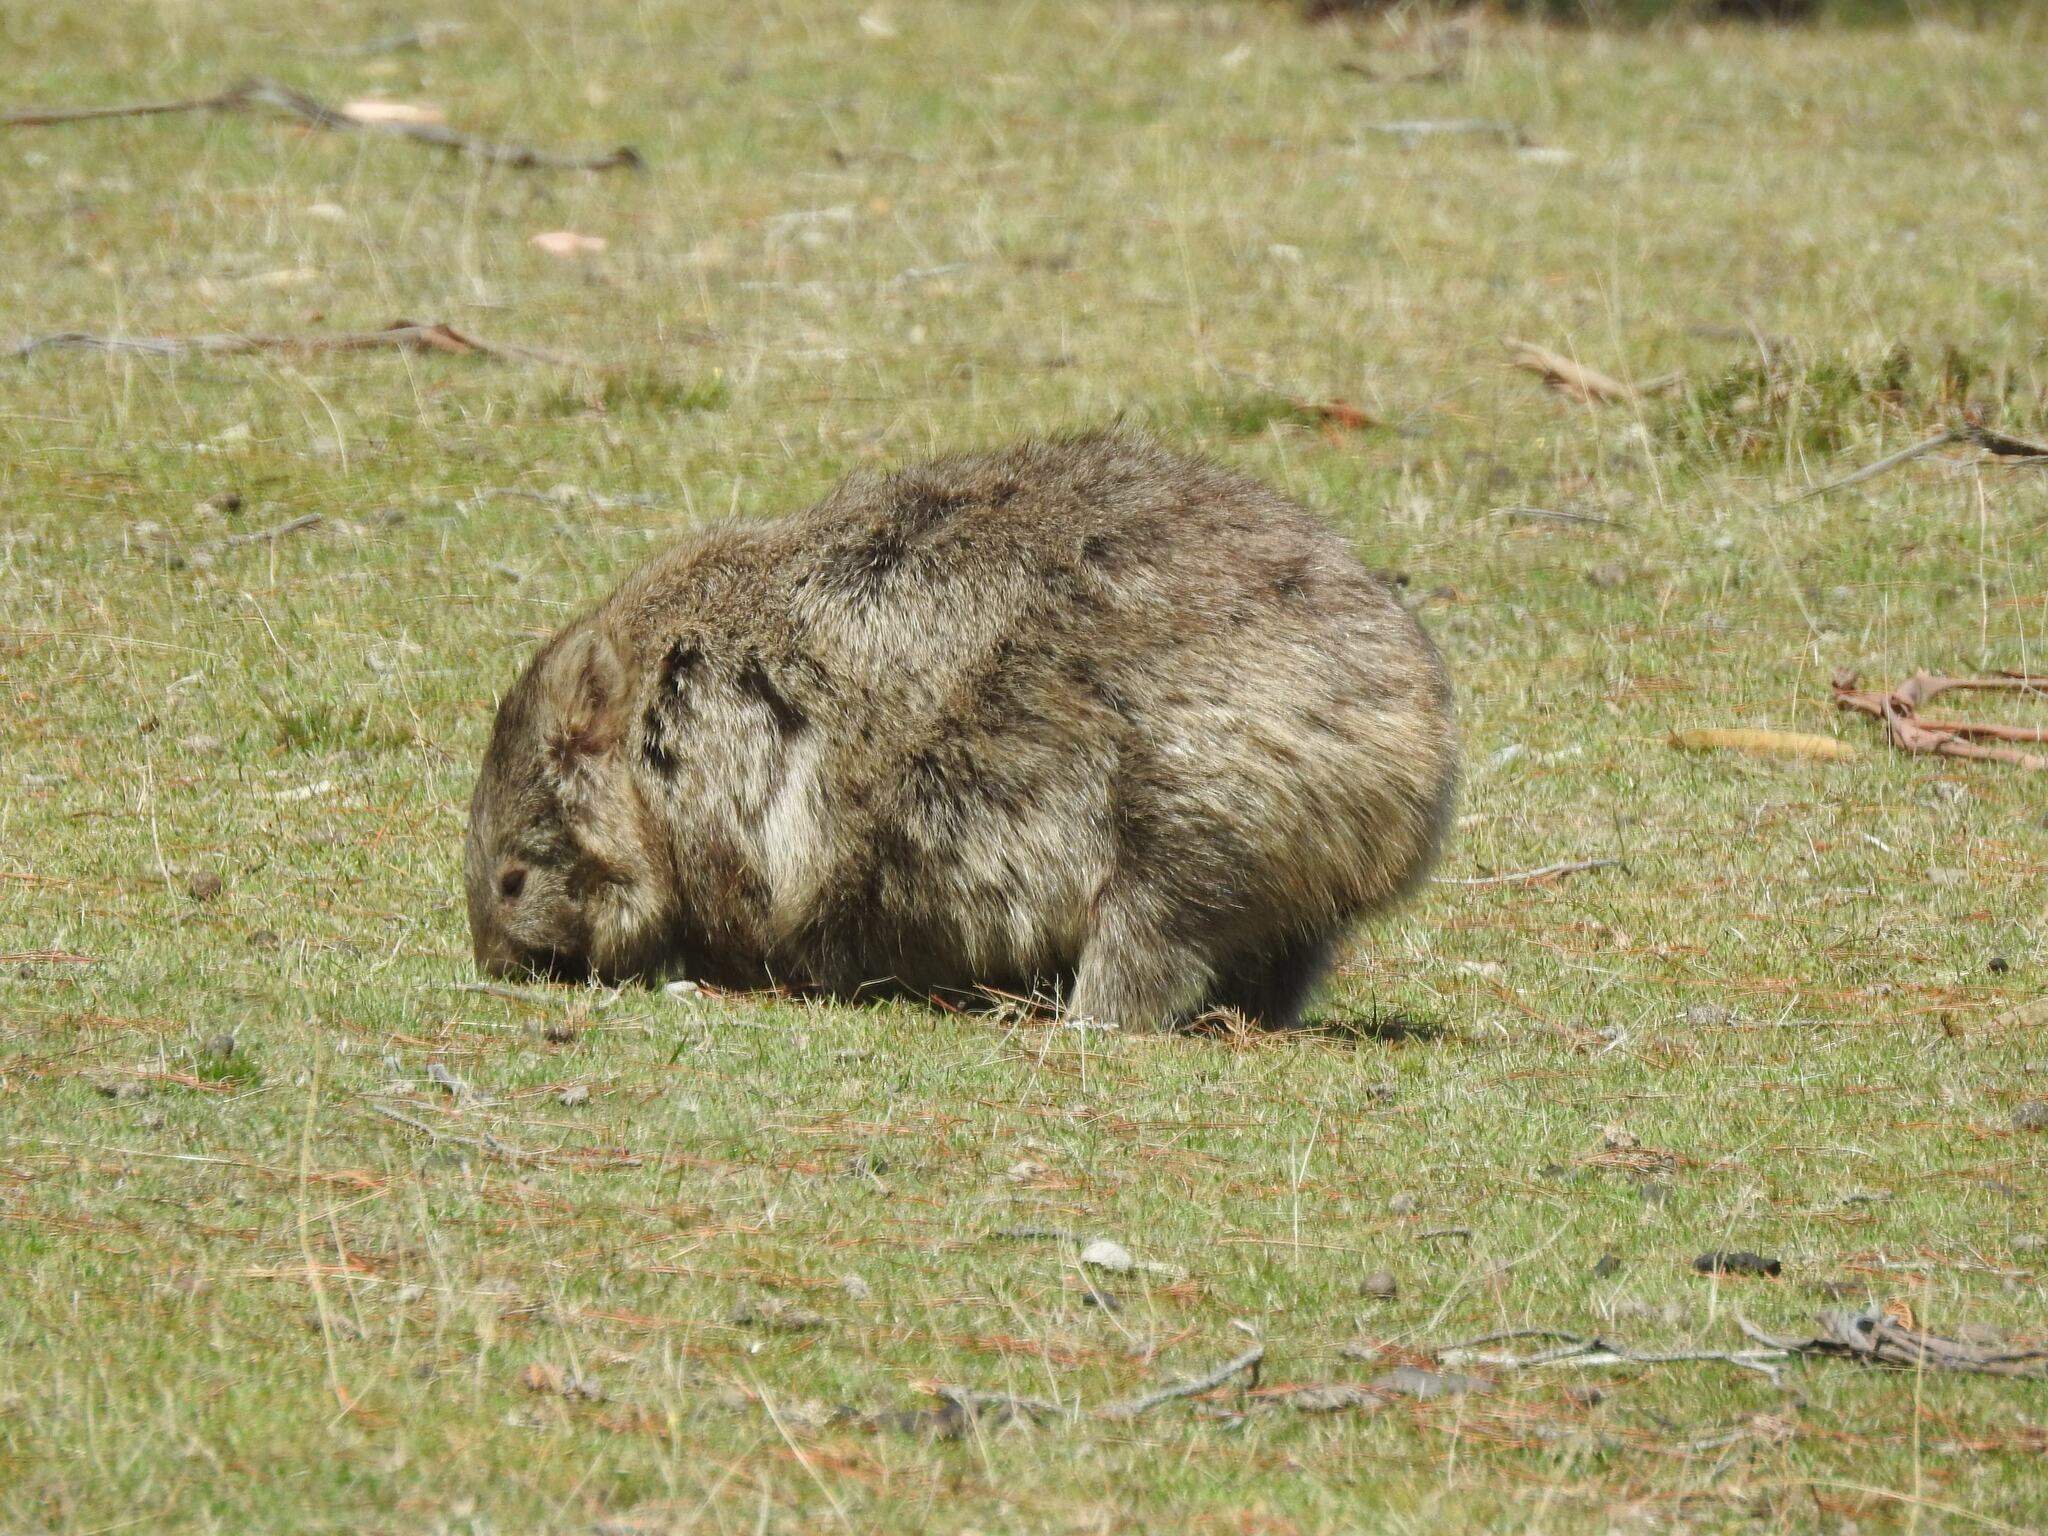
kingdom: Animalia
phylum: Chordata
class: Mammalia
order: Diprotodontia
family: Vombatidae
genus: Vombatus
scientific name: Vombatus ursinus
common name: Common wombat
